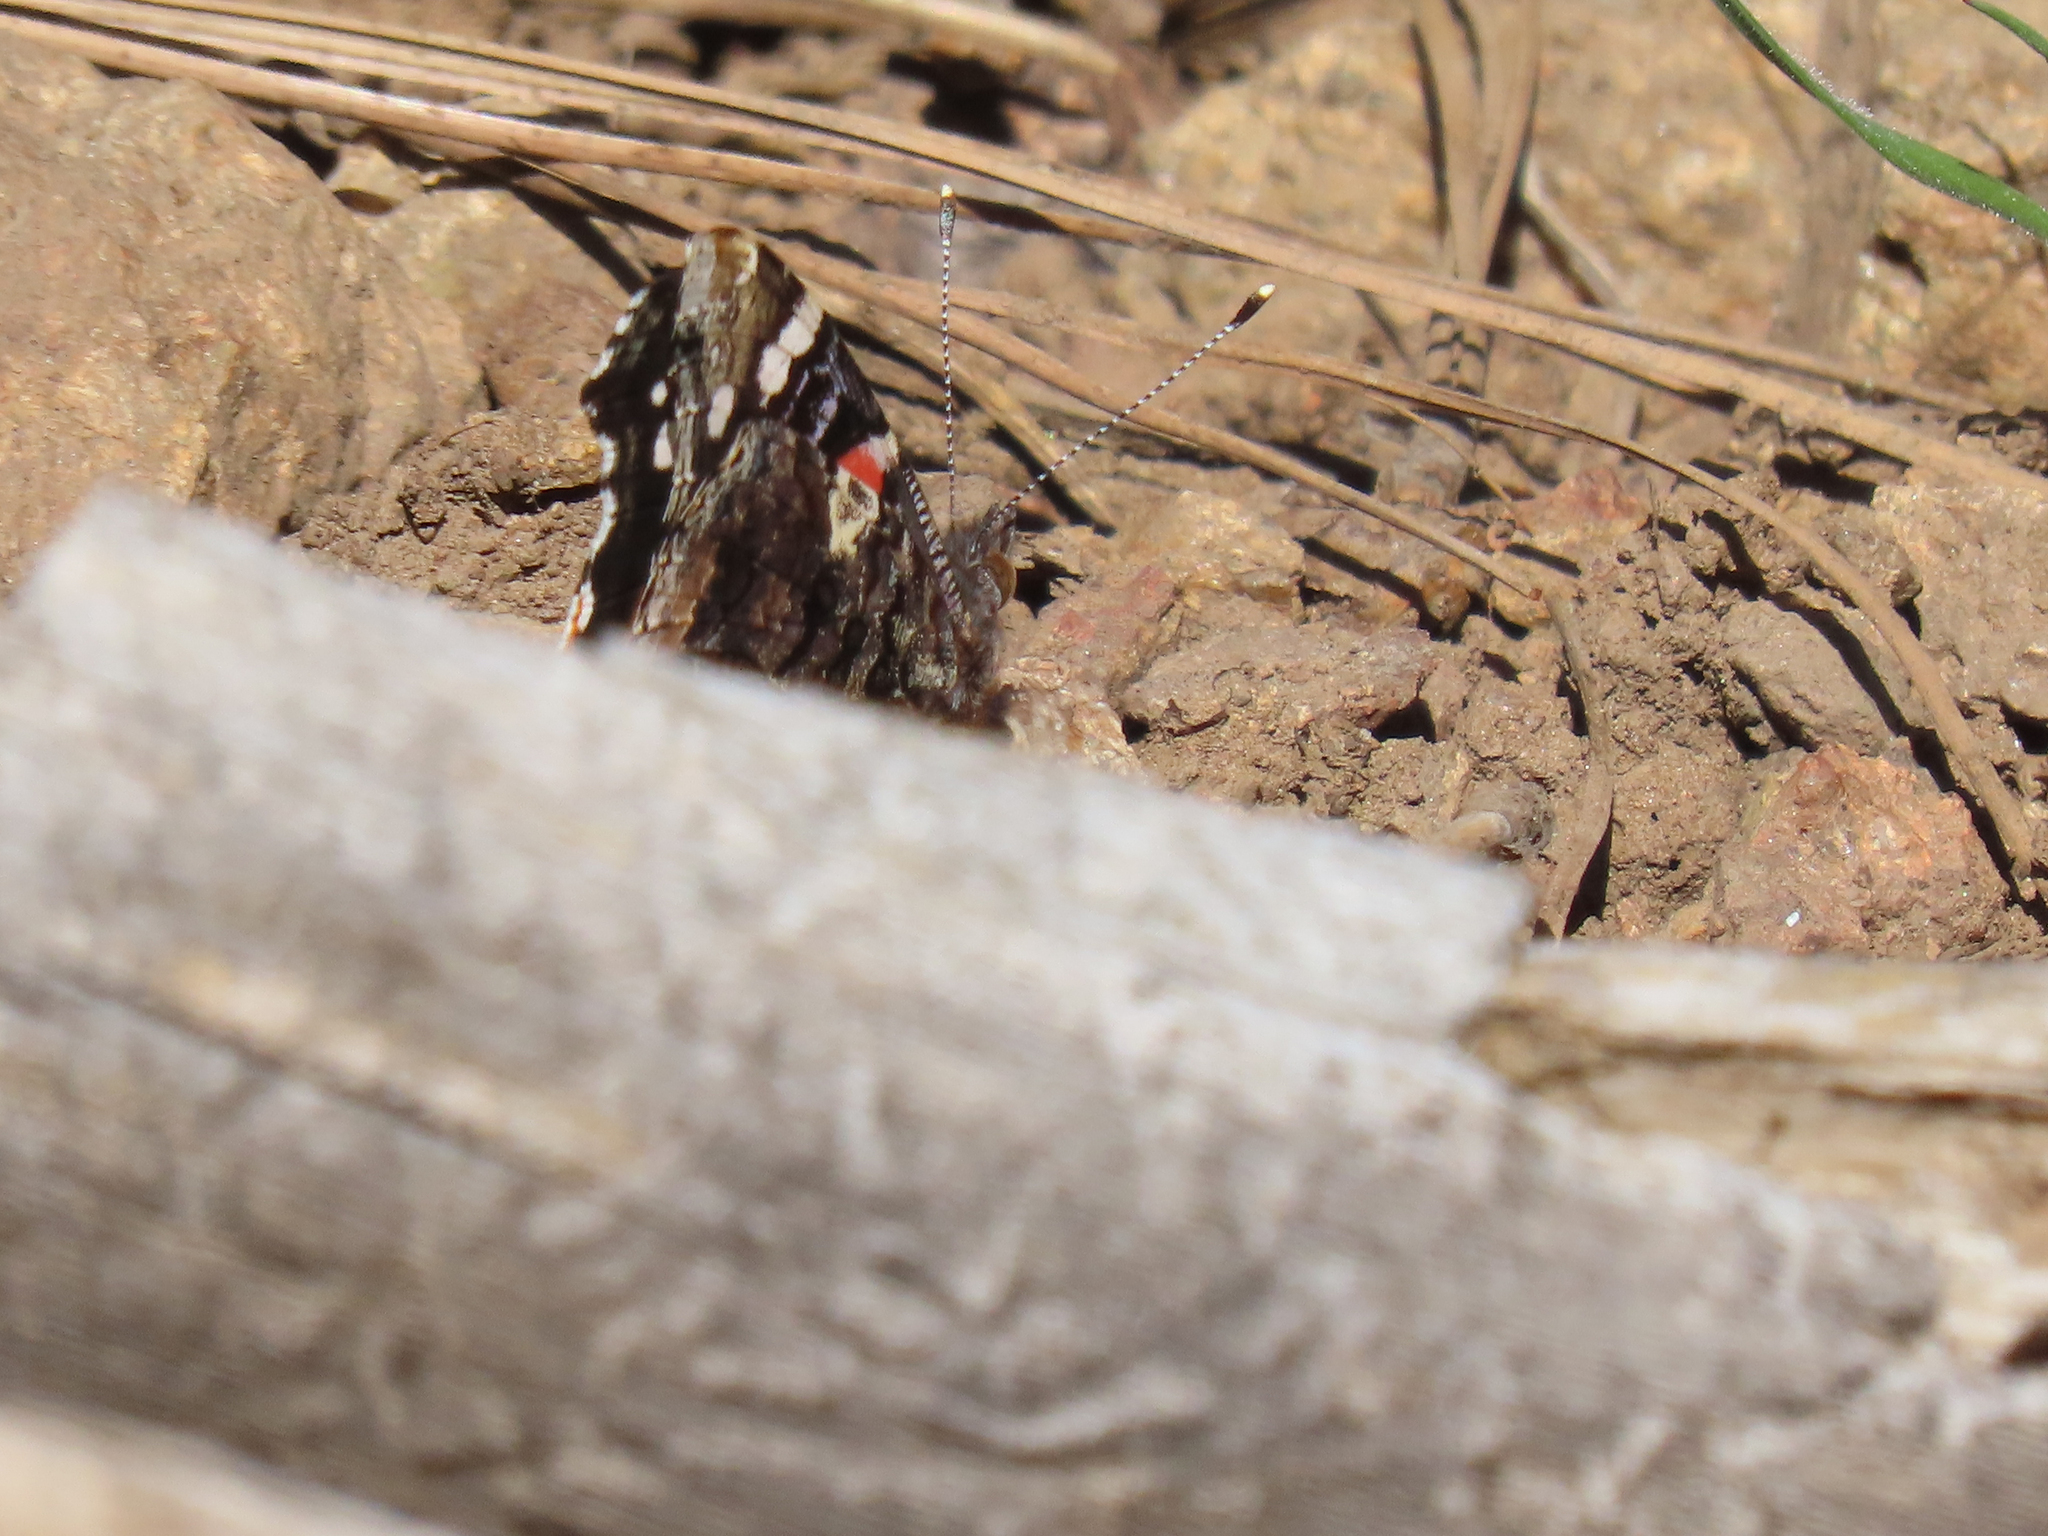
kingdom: Animalia
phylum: Arthropoda
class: Insecta
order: Lepidoptera
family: Nymphalidae
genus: Vanessa
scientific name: Vanessa atalanta
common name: Red admiral
